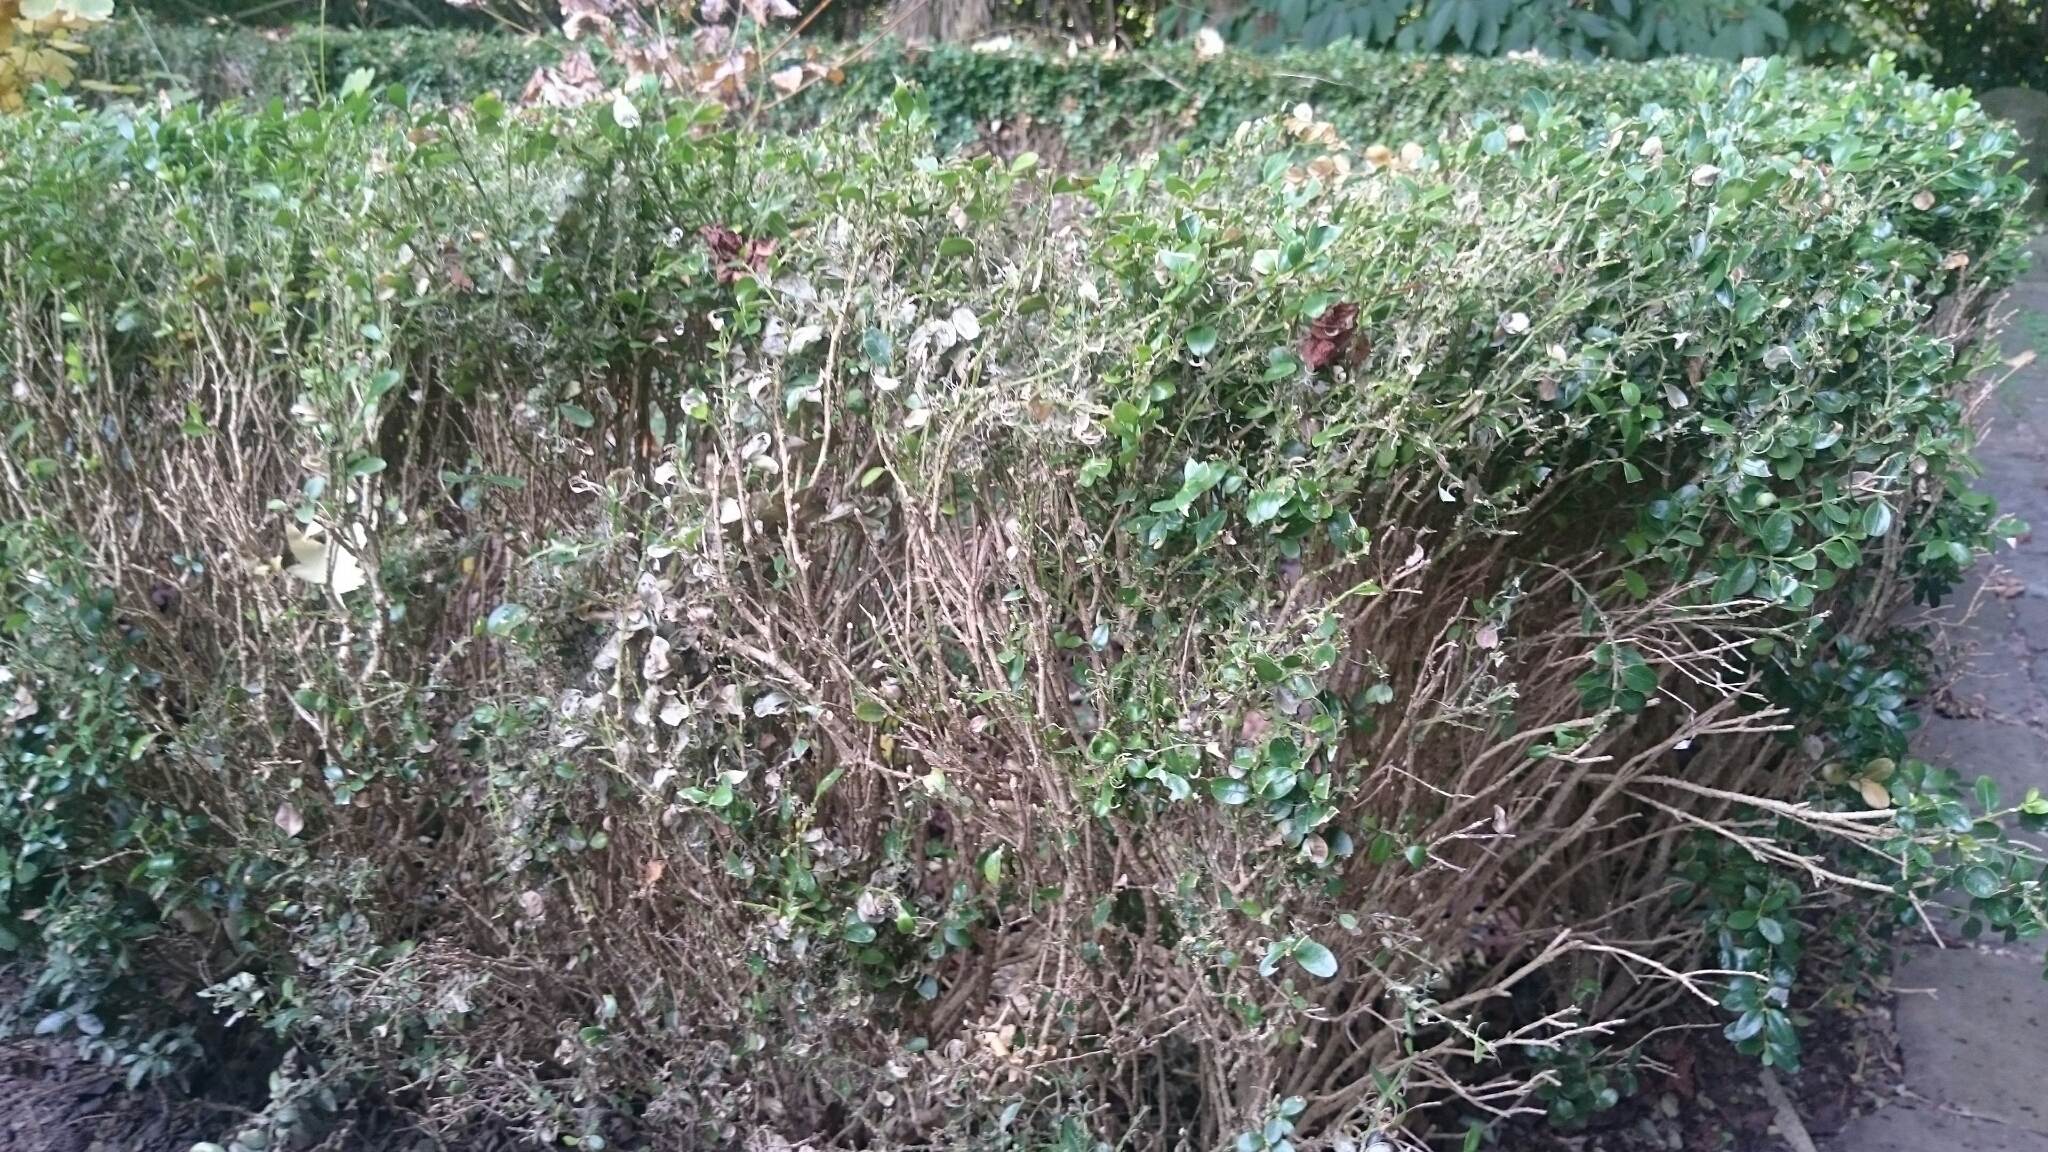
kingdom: Animalia
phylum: Arthropoda
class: Insecta
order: Lepidoptera
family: Crambidae
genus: Cydalima
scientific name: Cydalima perspectalis
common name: Box tree moth
